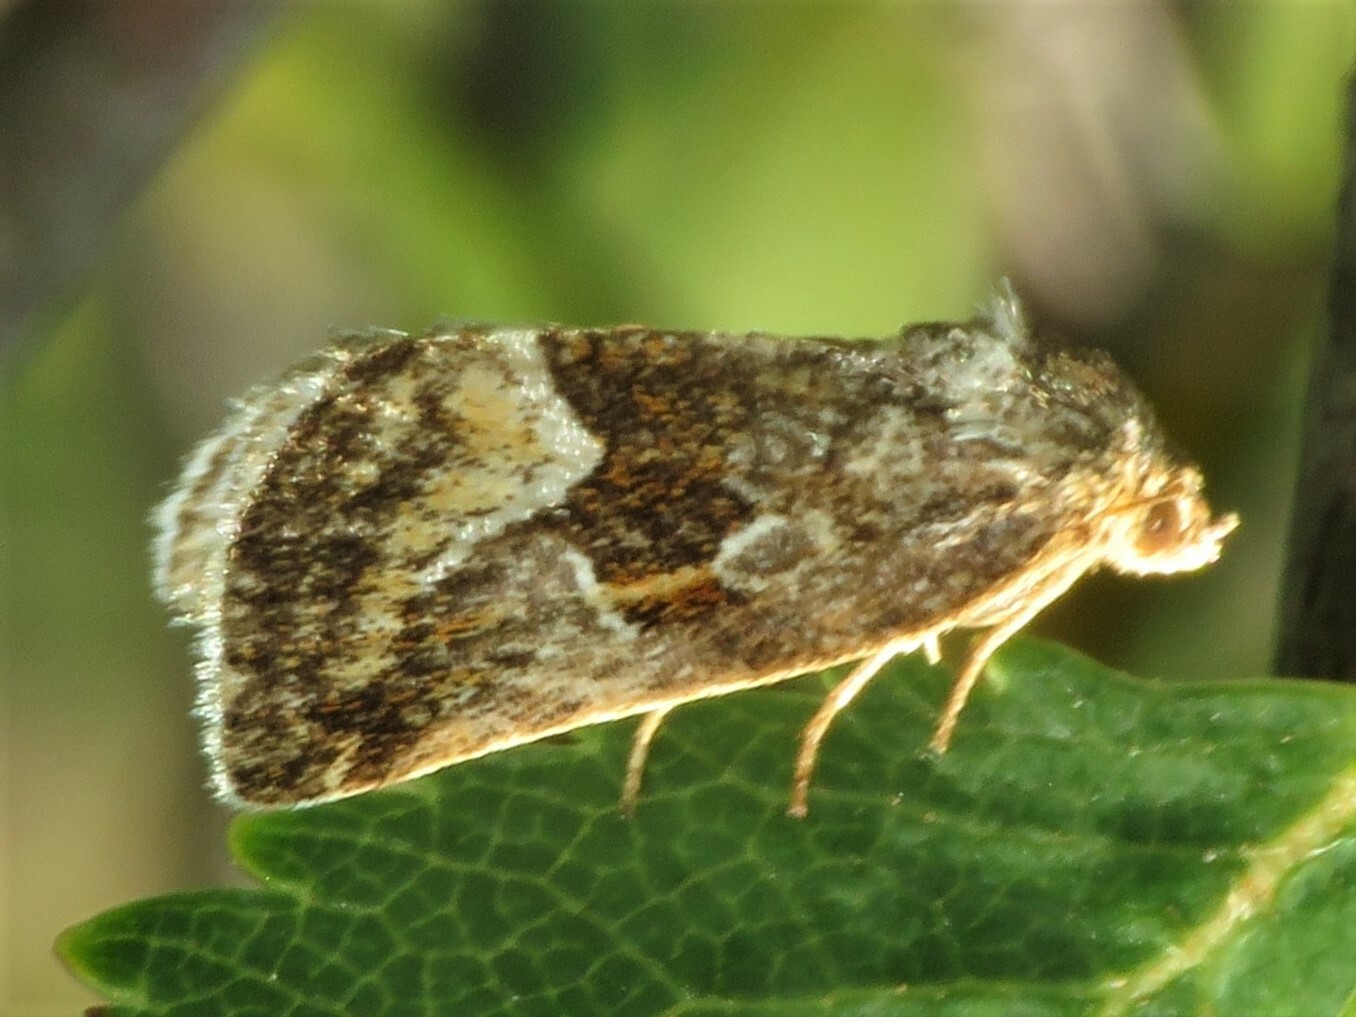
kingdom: Animalia
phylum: Arthropoda
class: Insecta
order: Lepidoptera
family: Noctuidae
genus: Deltote
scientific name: Deltote bellicula
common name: Bog glyph
